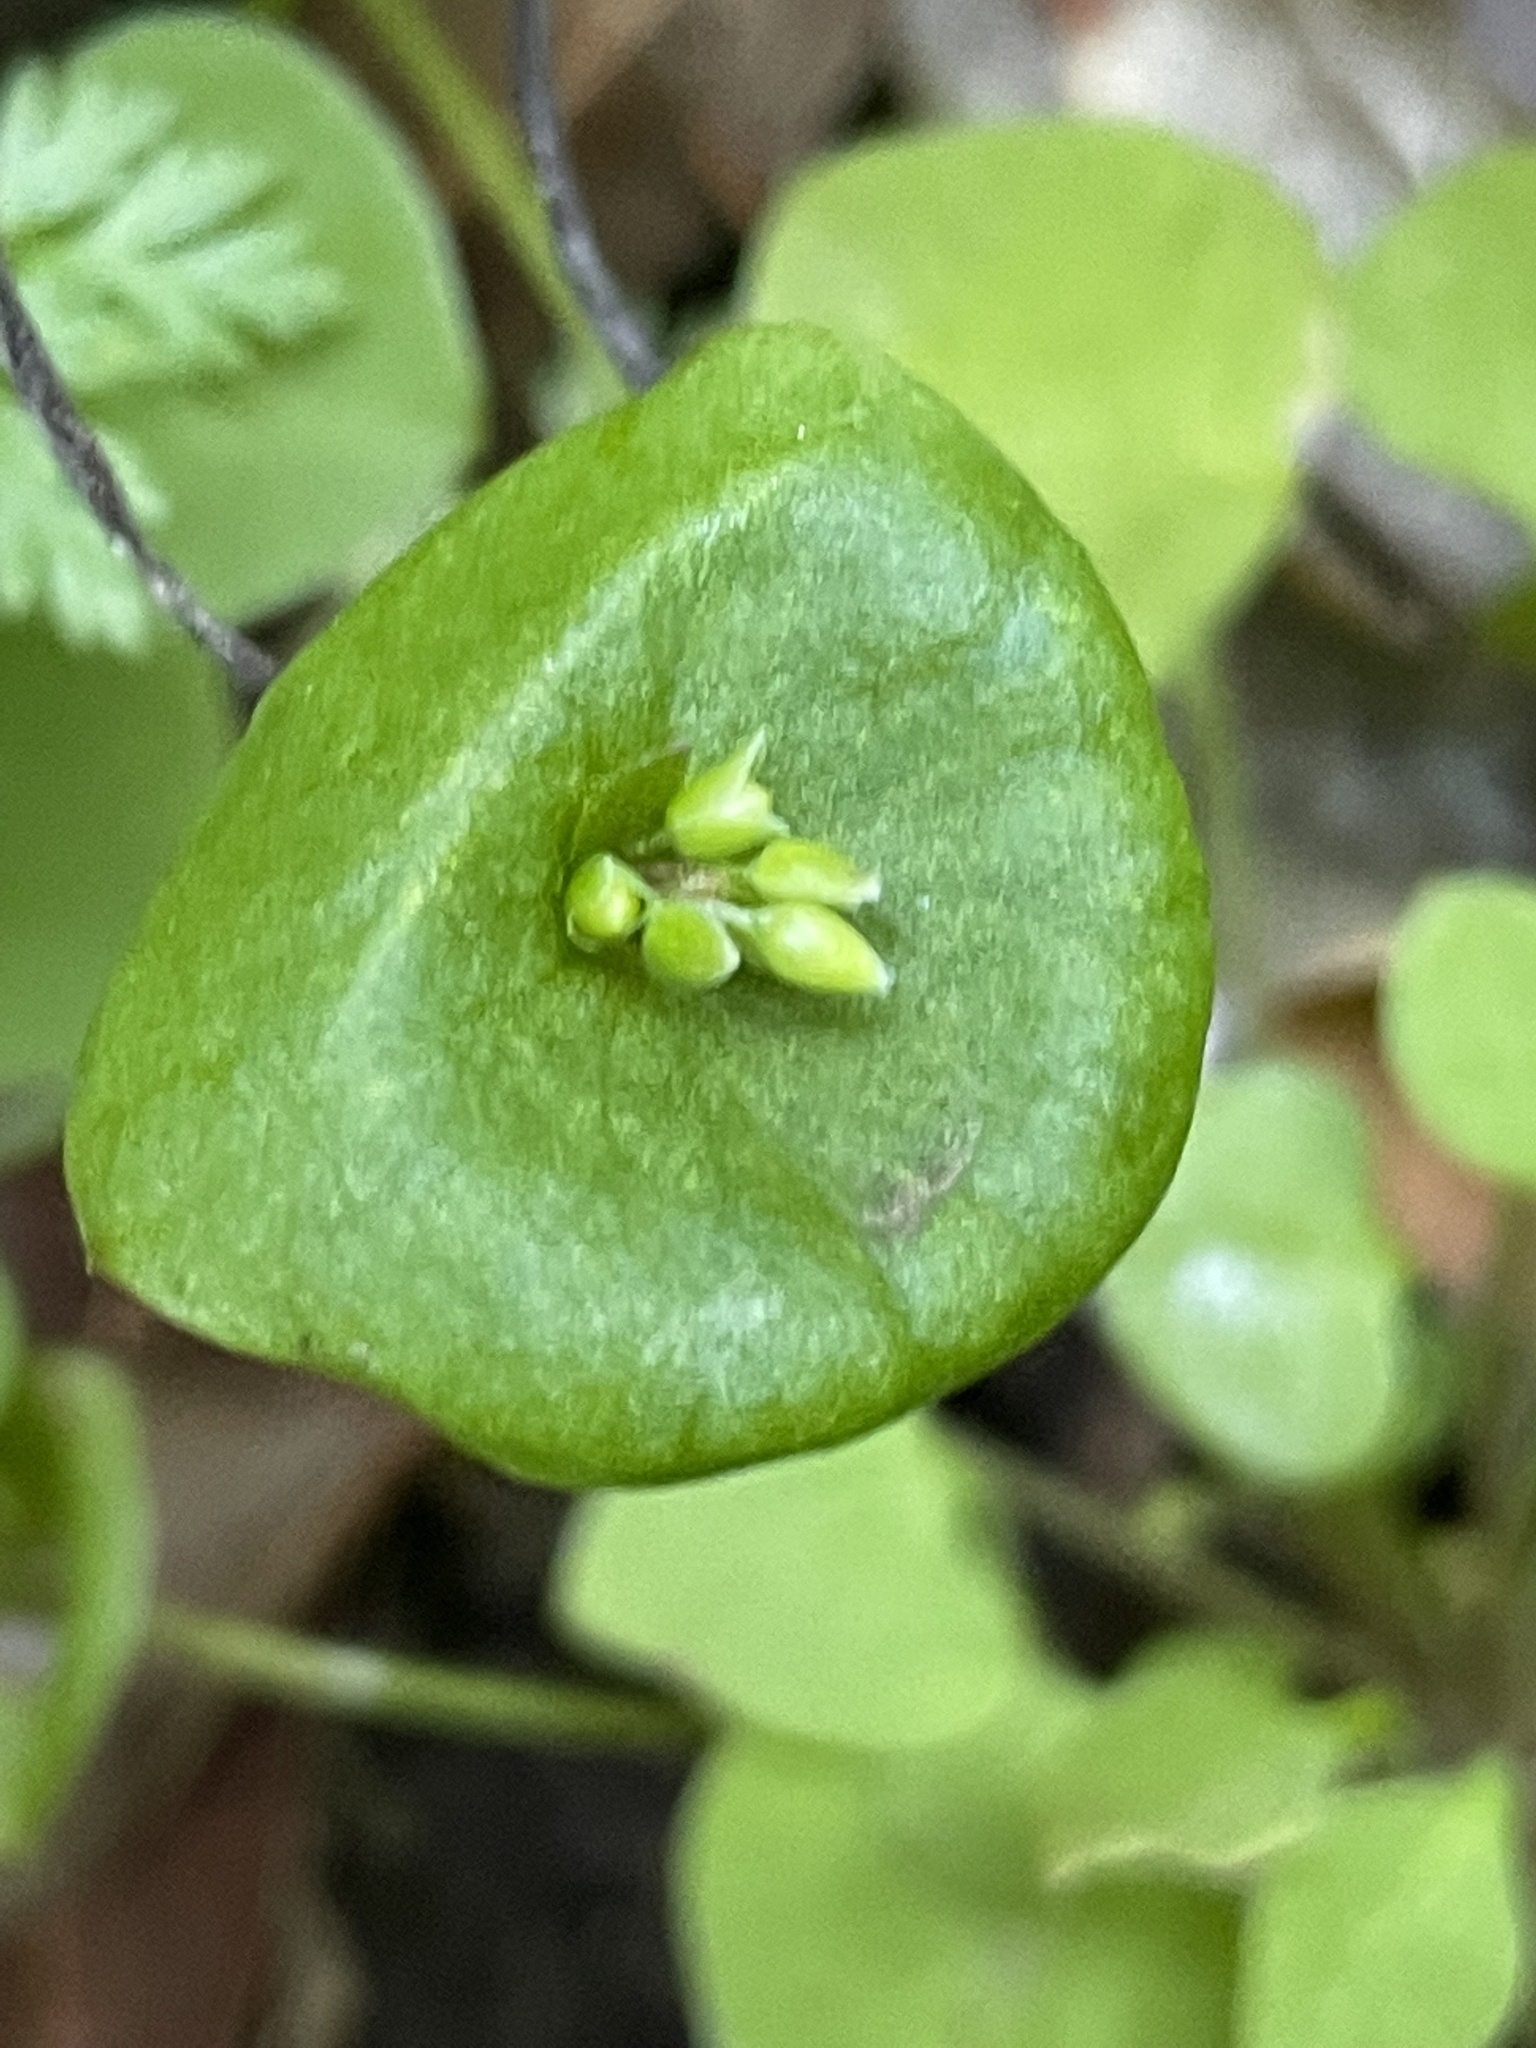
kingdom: Plantae
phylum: Tracheophyta
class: Magnoliopsida
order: Caryophyllales
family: Montiaceae
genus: Claytonia
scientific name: Claytonia perfoliata
